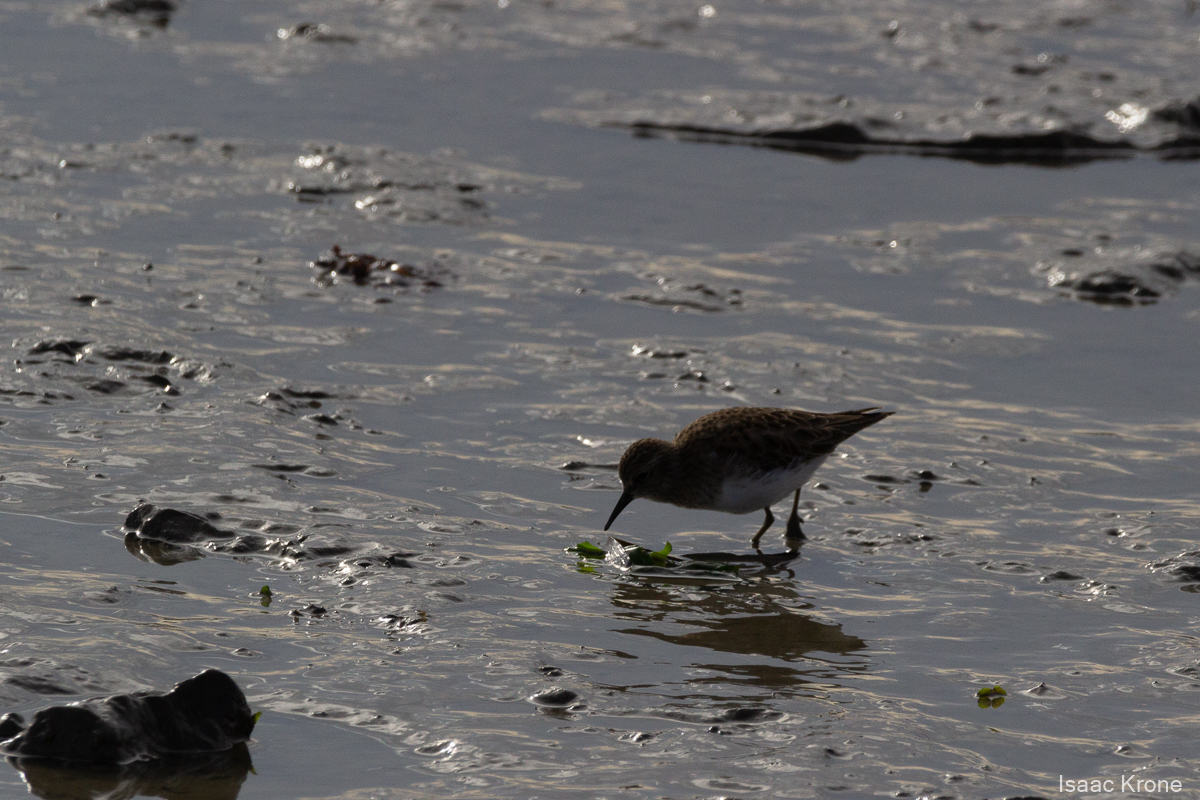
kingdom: Animalia
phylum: Chordata
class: Aves
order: Charadriiformes
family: Scolopacidae
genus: Calidris
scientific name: Calidris minutilla
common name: Least sandpiper
